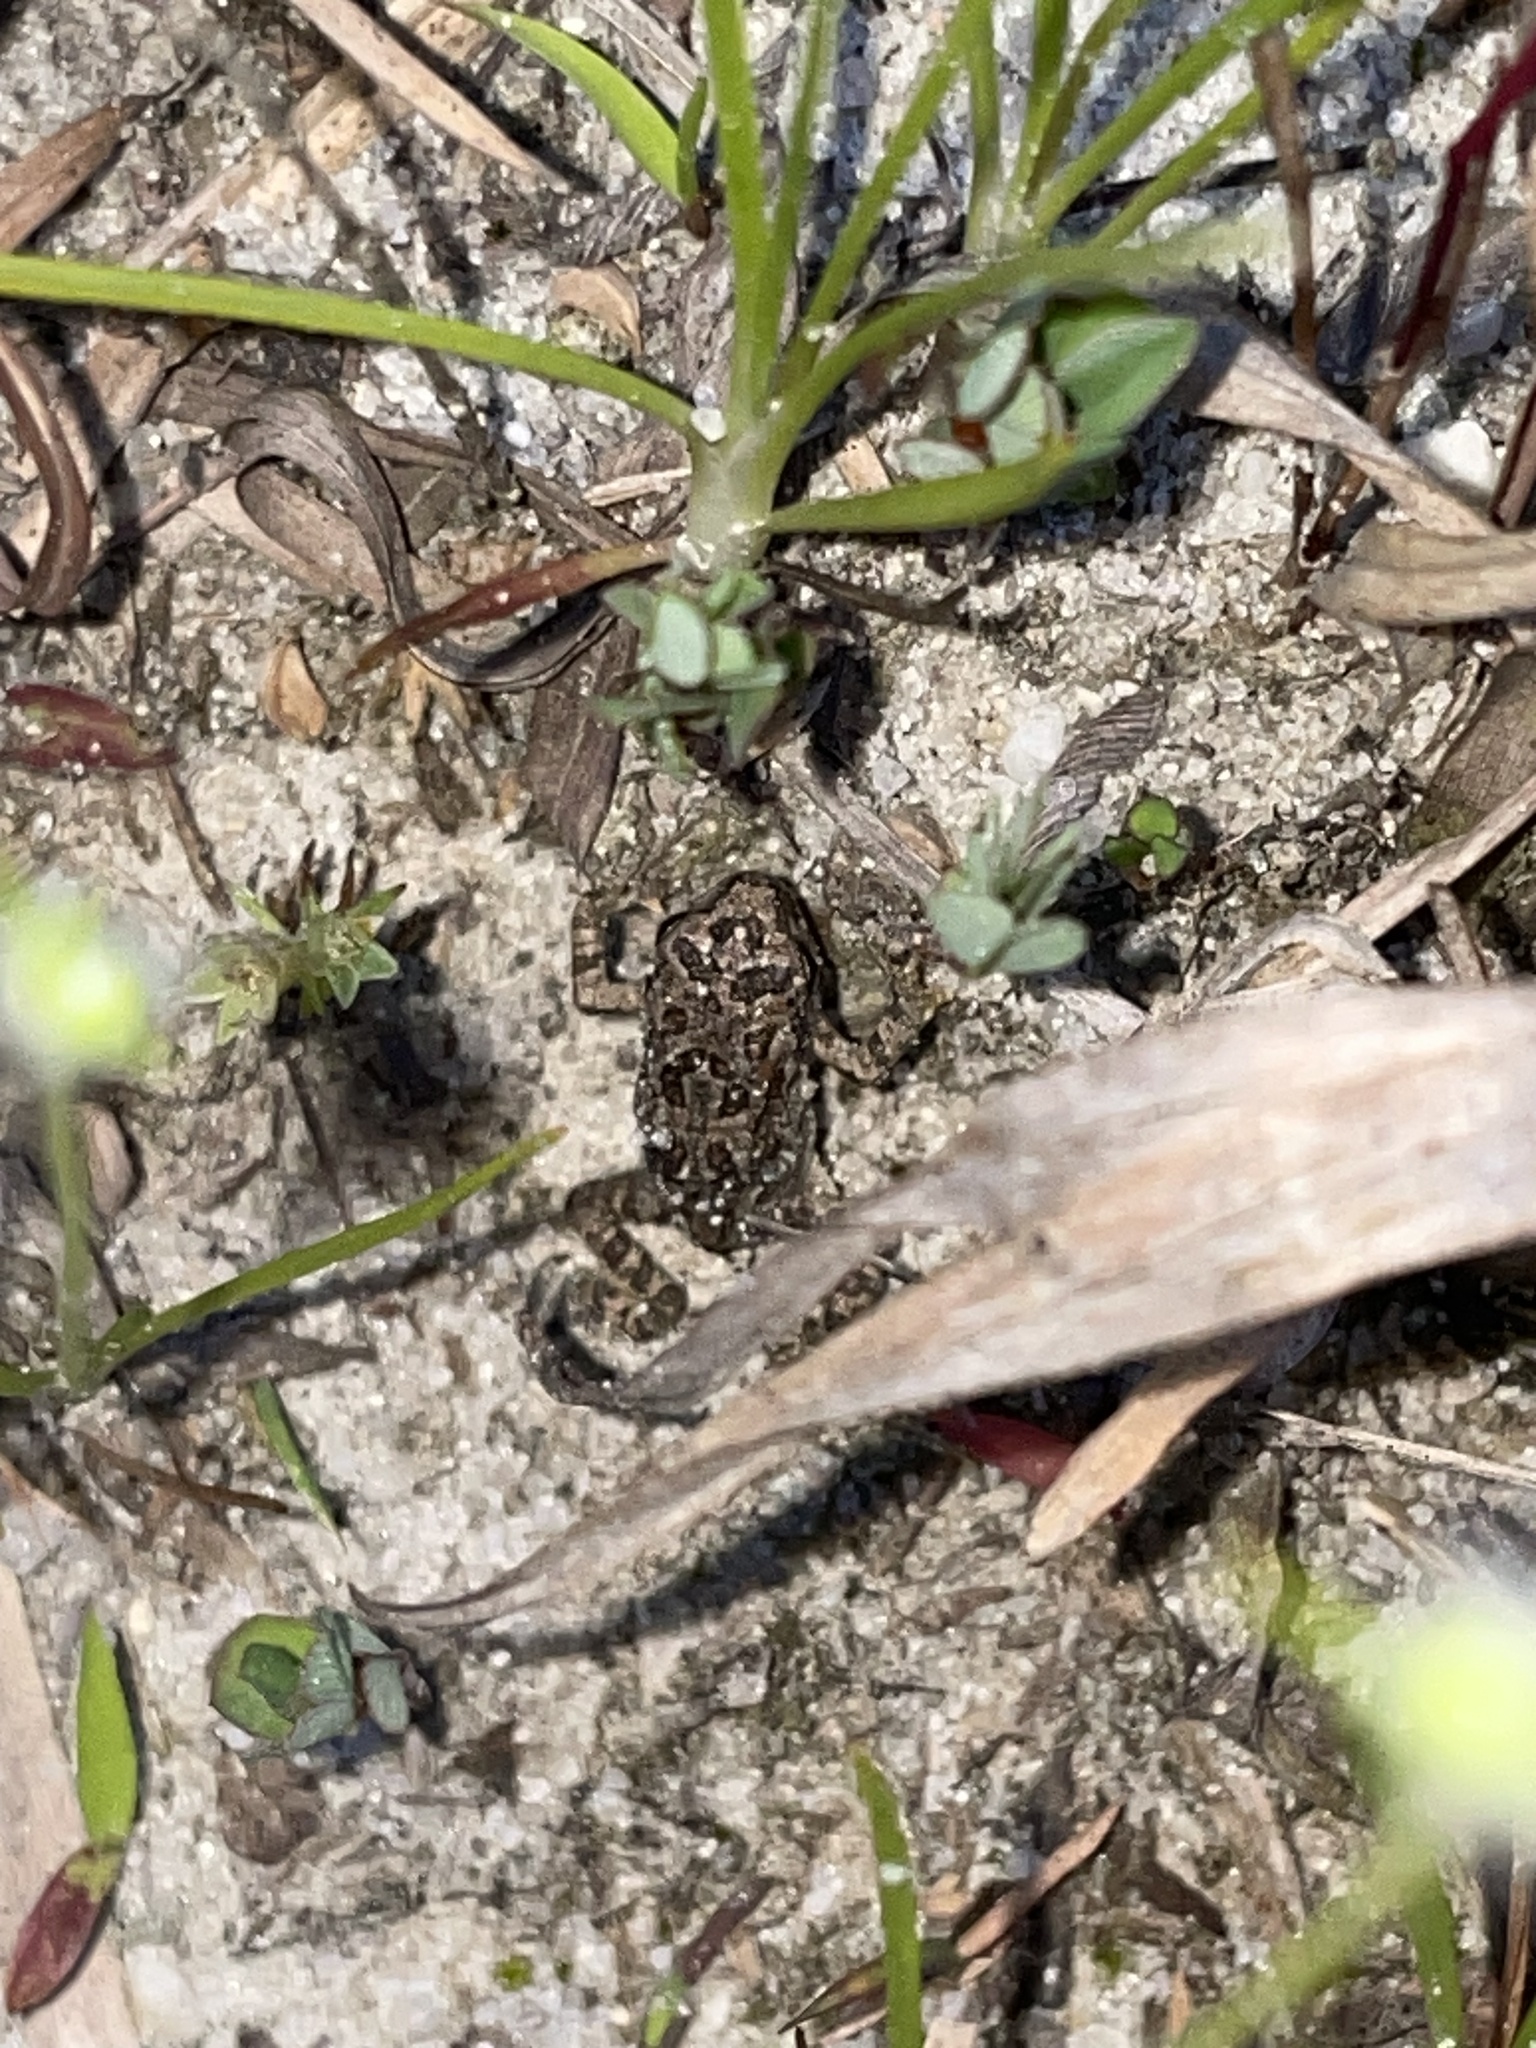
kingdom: Animalia
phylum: Chordata
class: Amphibia
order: Anura
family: Bufonidae
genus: Anaxyrus
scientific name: Anaxyrus fowleri
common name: Fowler's toad
